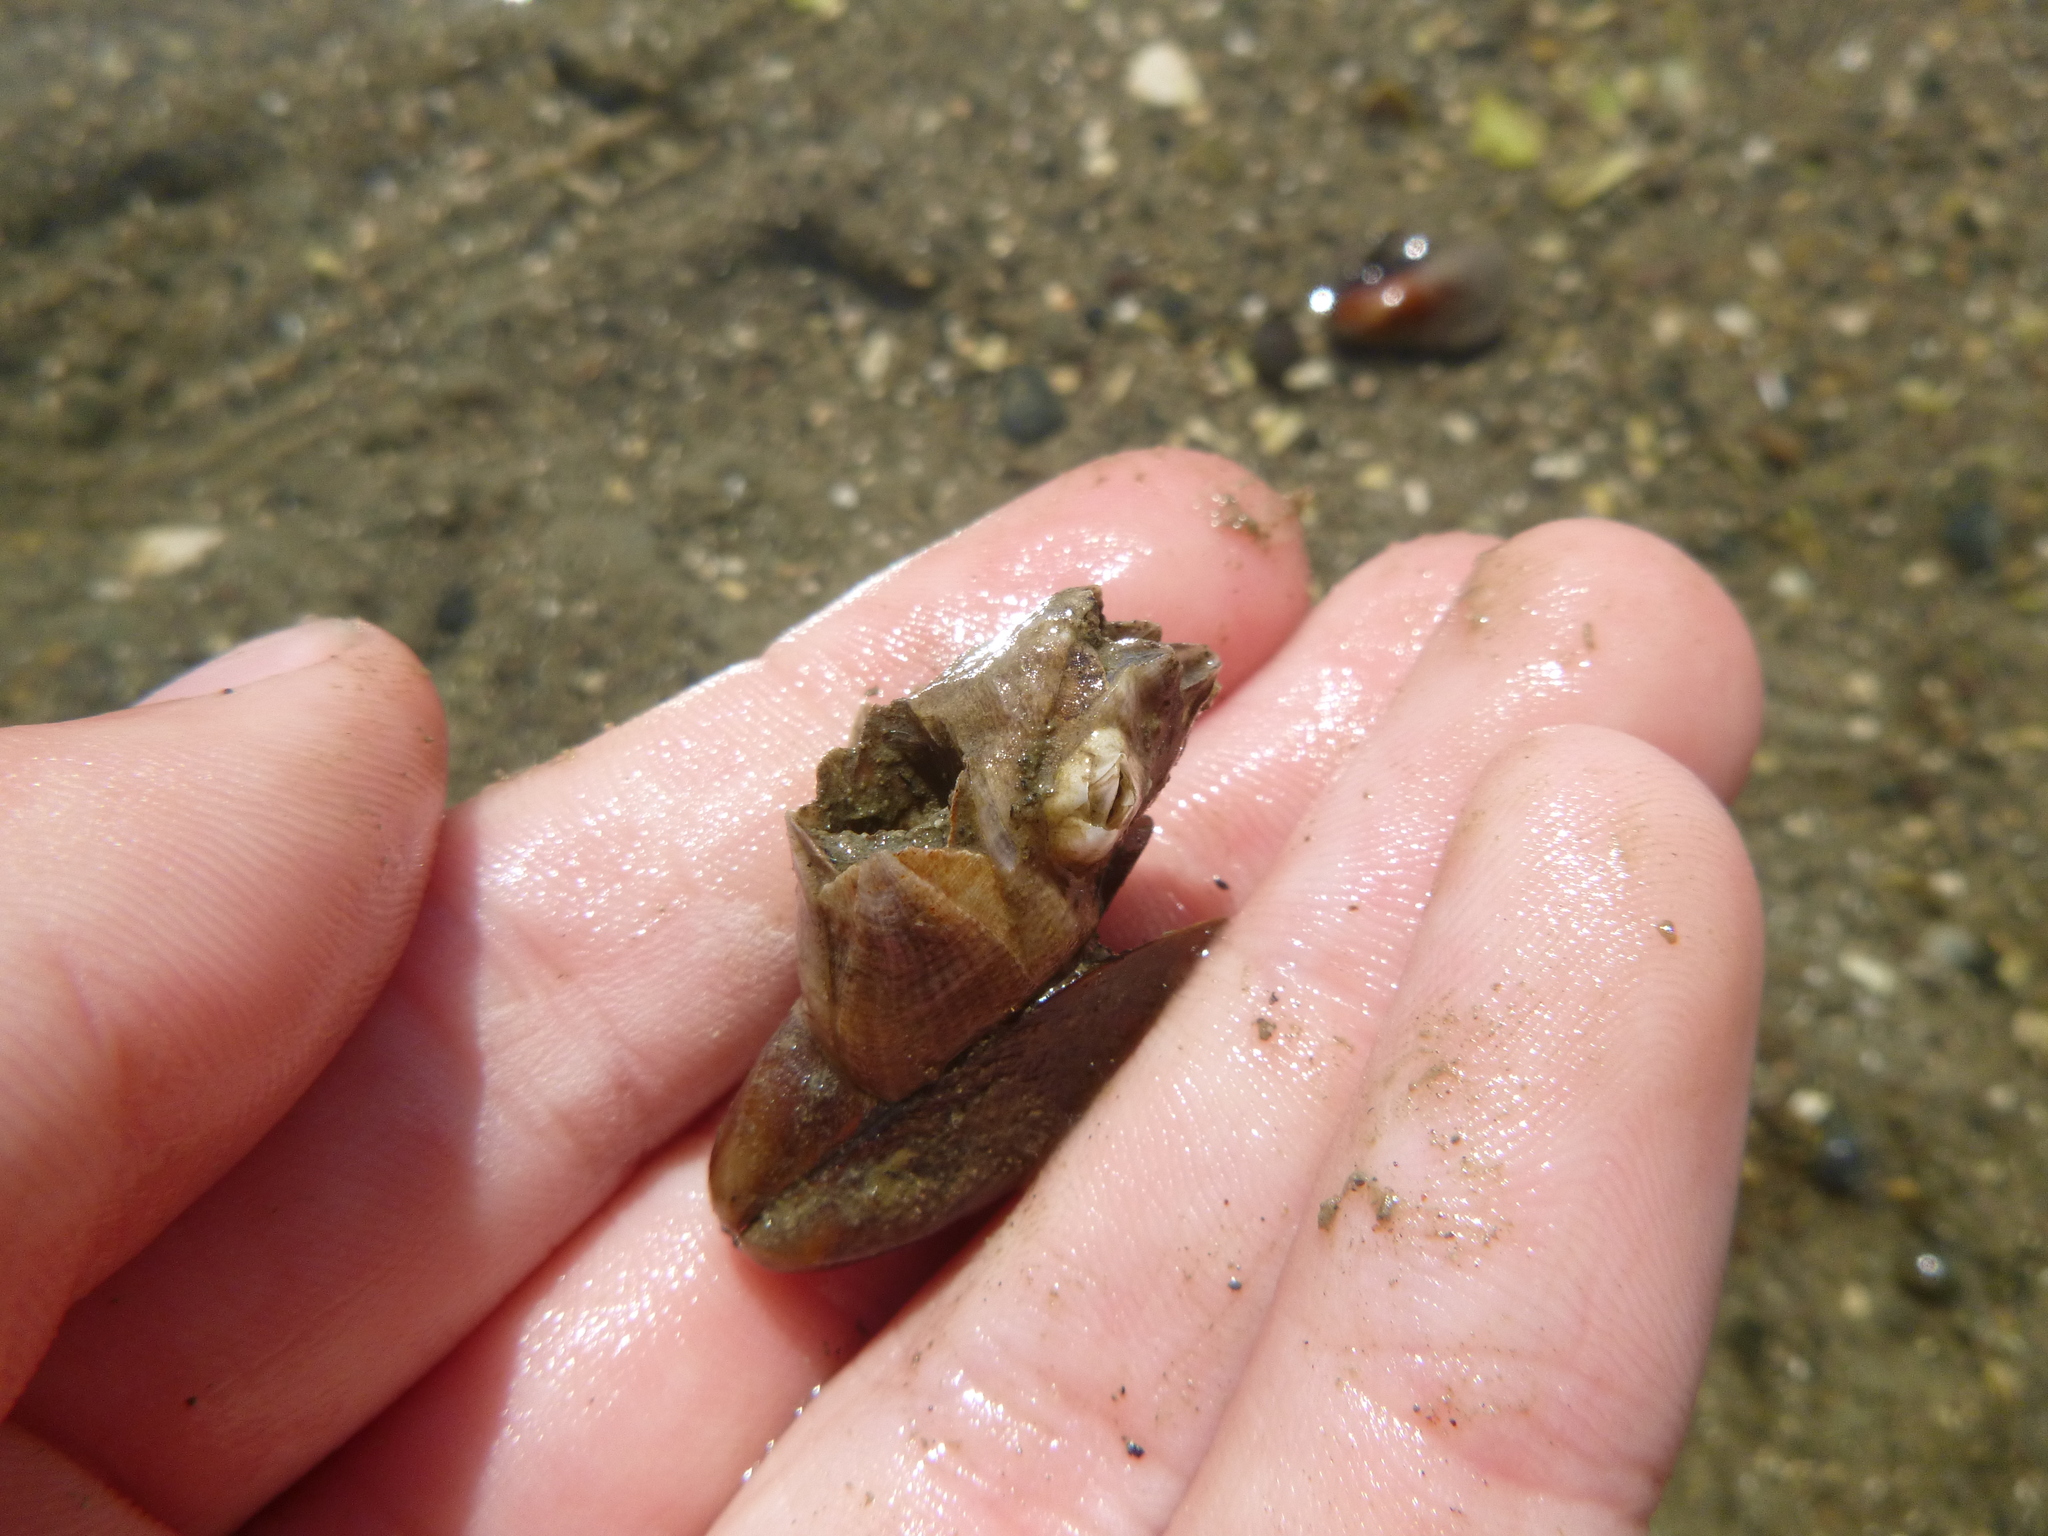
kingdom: Animalia
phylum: Arthropoda
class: Maxillopoda
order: Sessilia
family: Balanidae
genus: Fistulobalanus
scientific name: Fistulobalanus kondakovi
